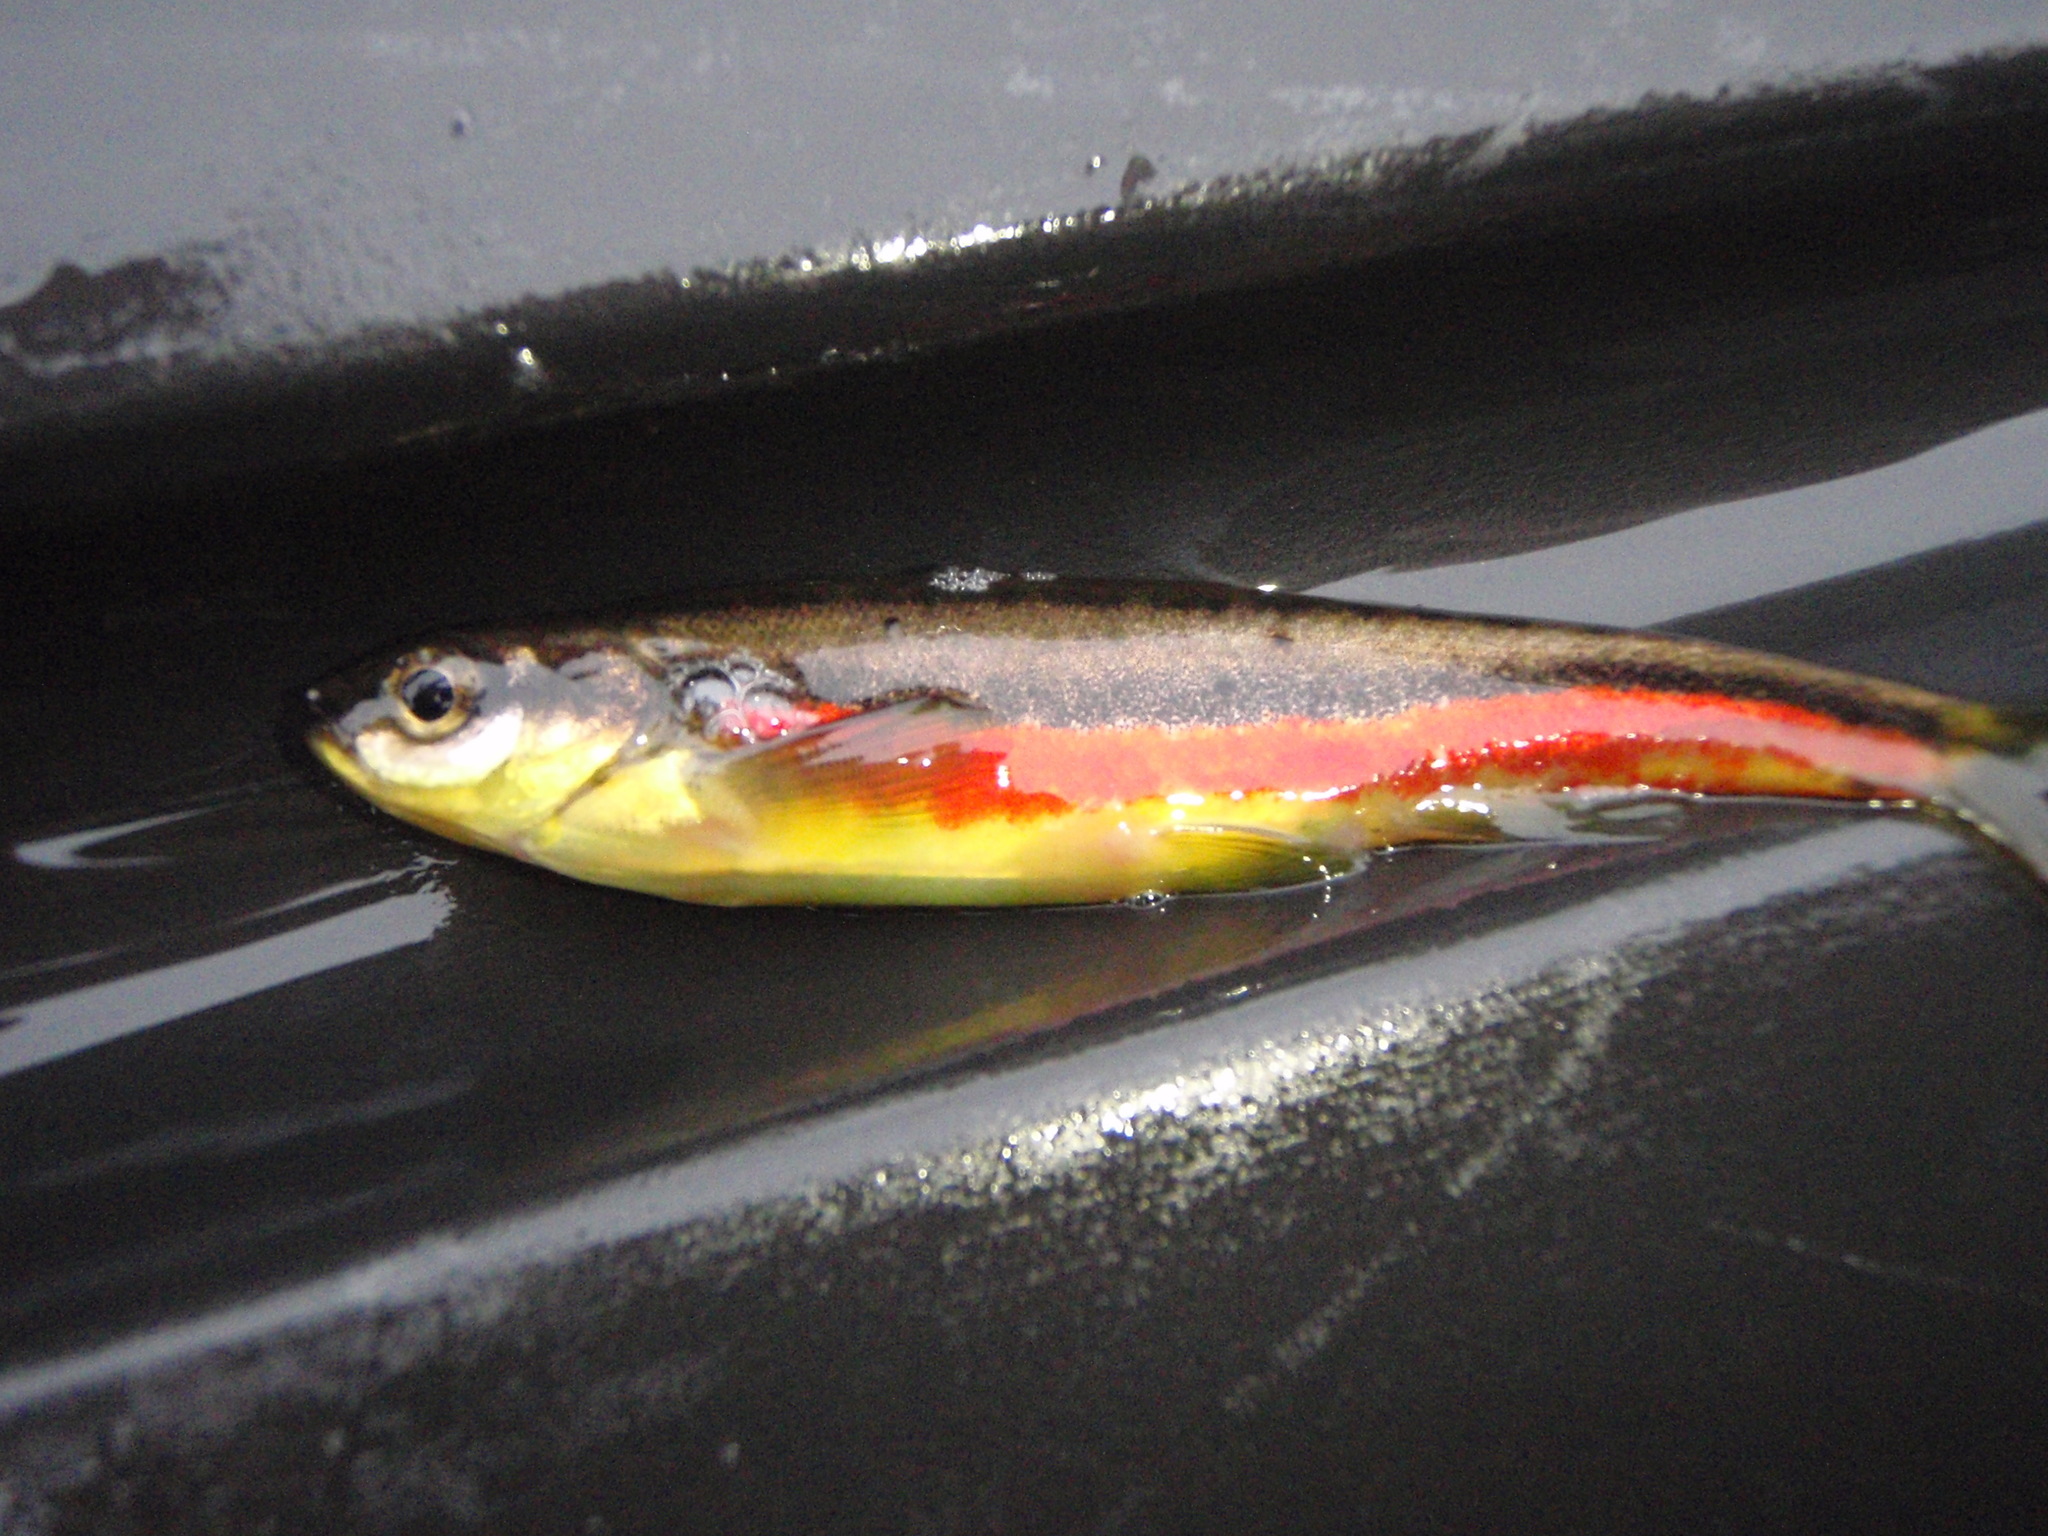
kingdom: Animalia
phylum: Chordata
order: Cypriniformes
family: Cyprinidae
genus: Chrosomus
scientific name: Chrosomus eos
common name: Northern redbelly dace
